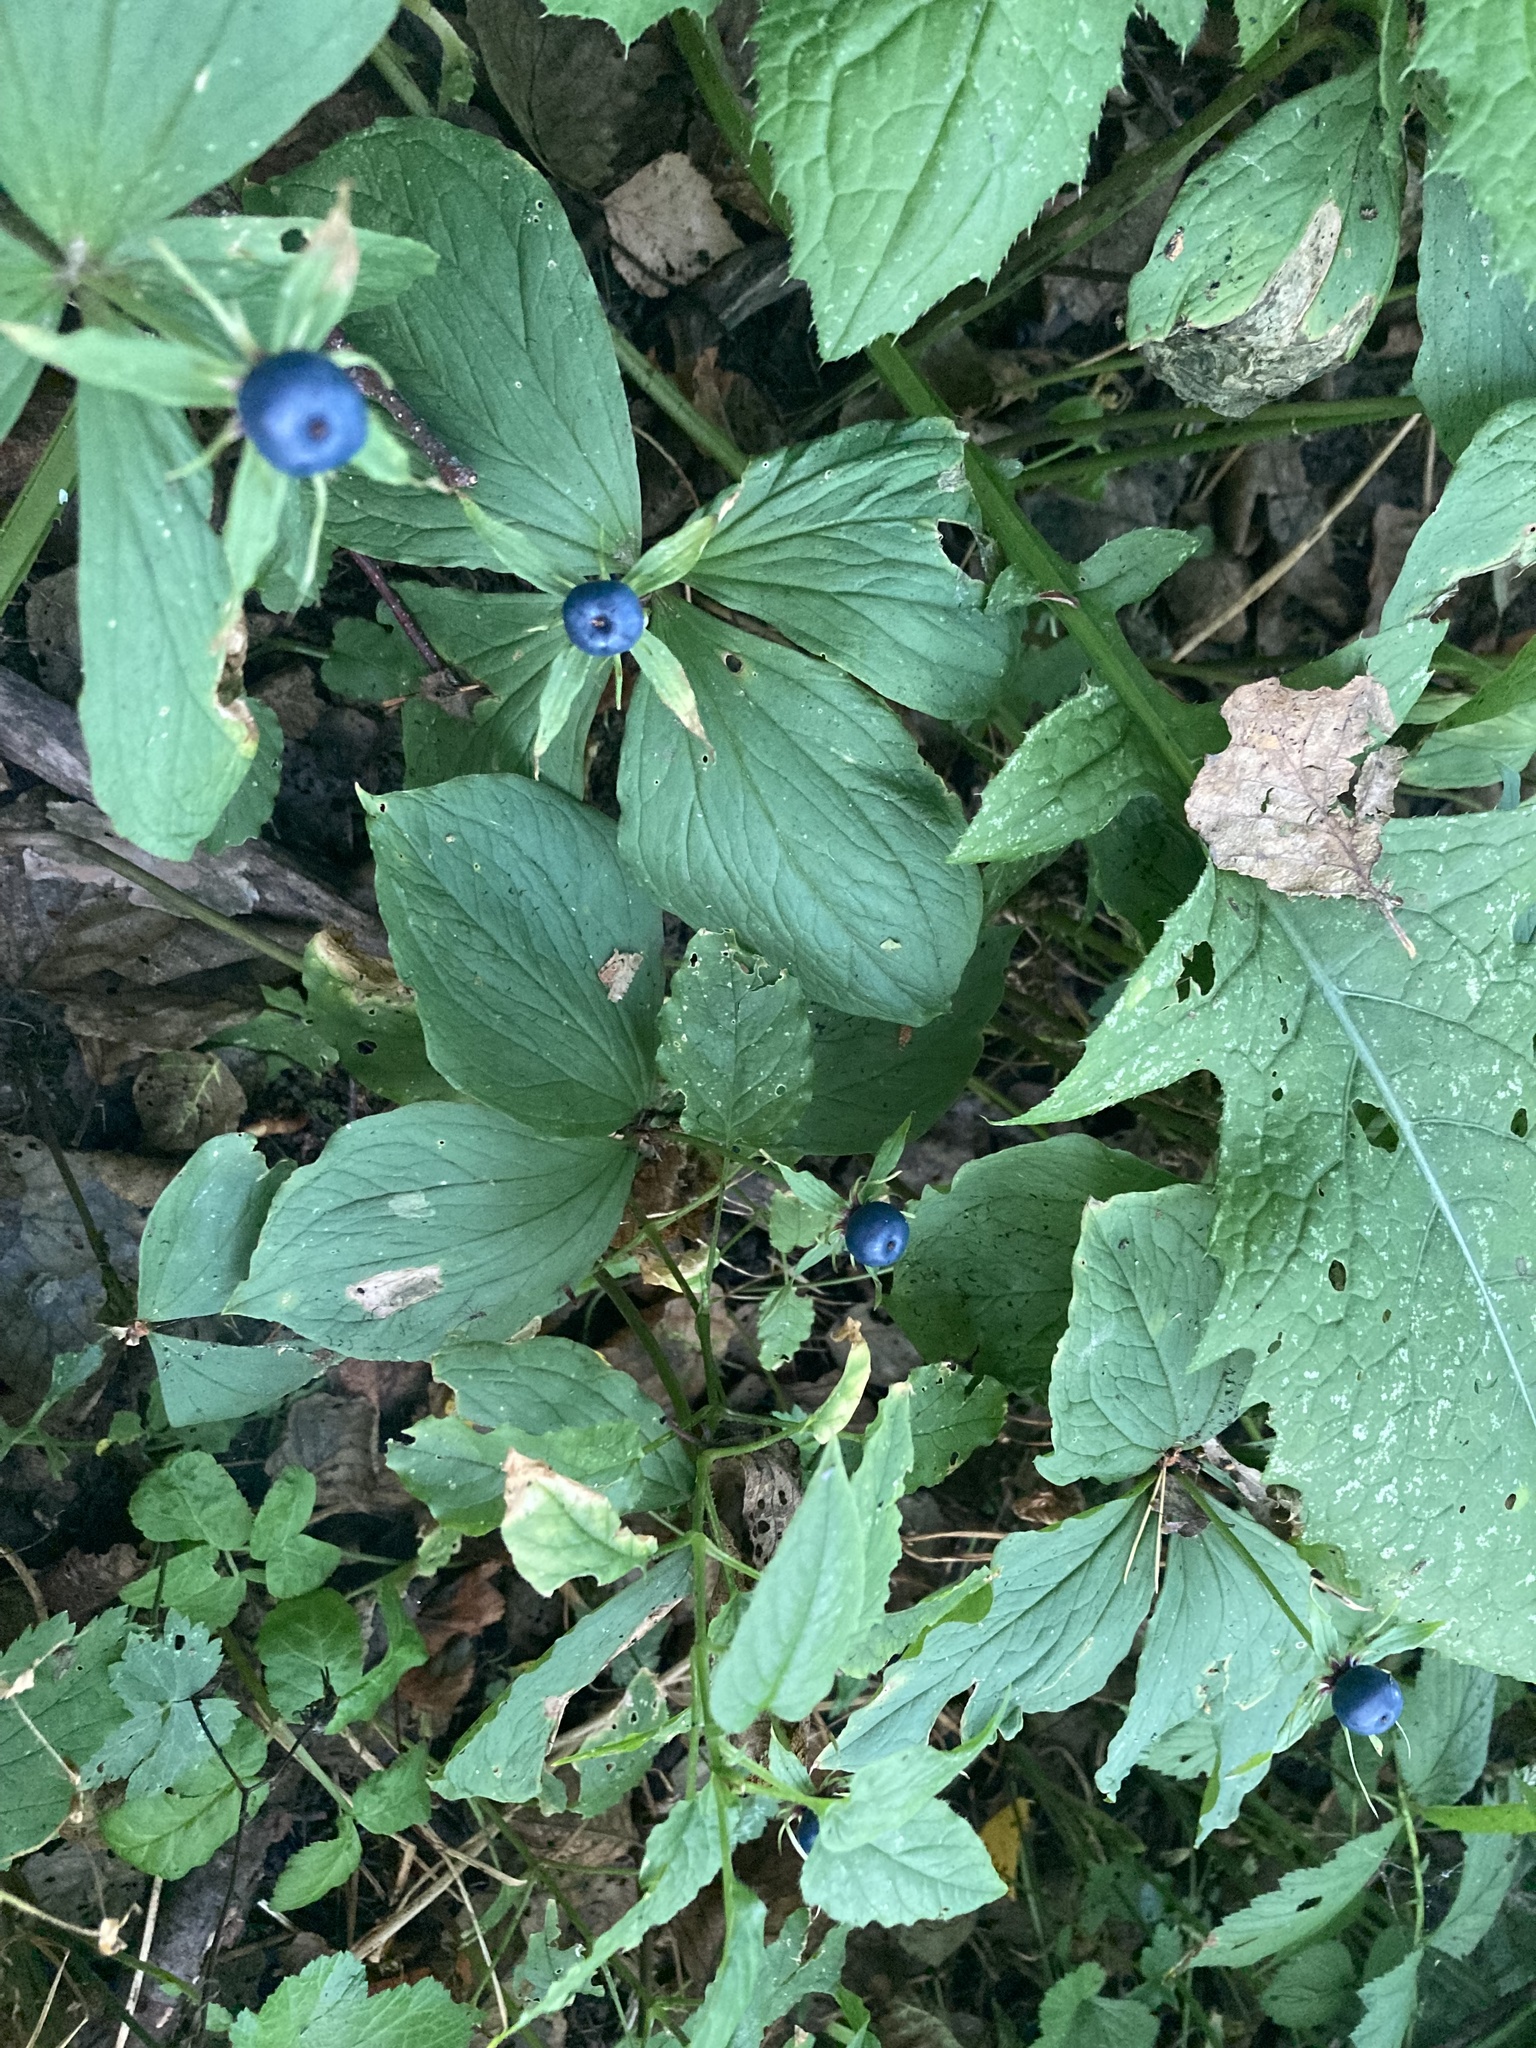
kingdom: Plantae
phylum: Tracheophyta
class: Liliopsida
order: Liliales
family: Melanthiaceae
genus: Paris
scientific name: Paris quadrifolia
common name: Herb-paris
